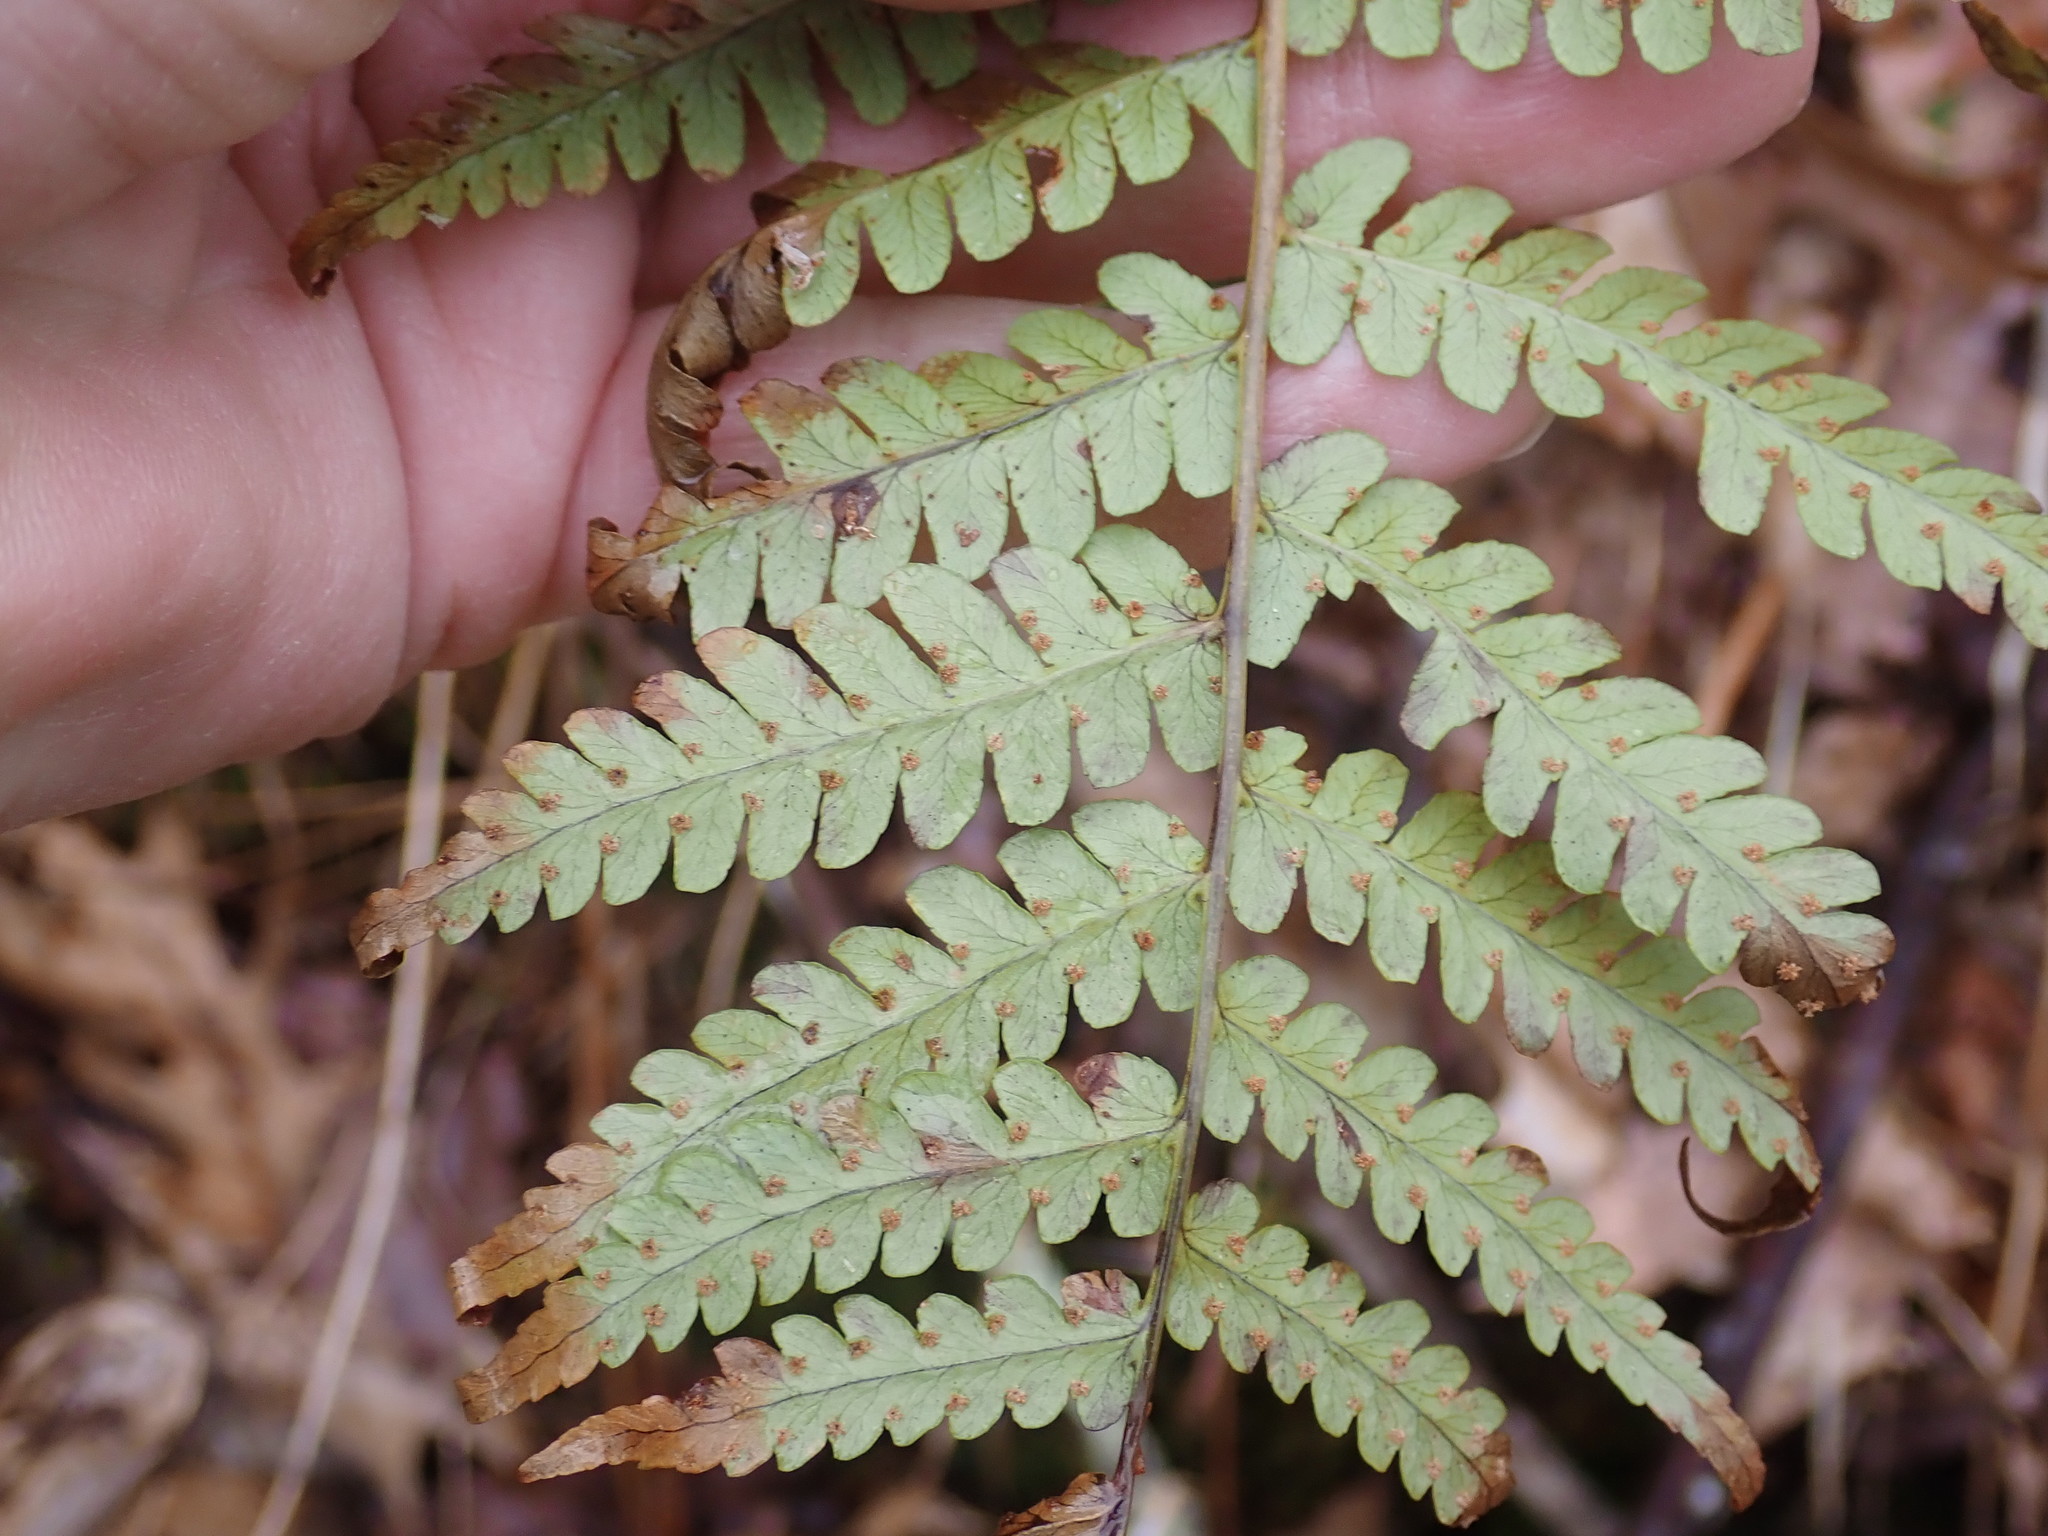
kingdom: Plantae
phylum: Tracheophyta
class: Polypodiopsida
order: Polypodiales
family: Dryopteridaceae
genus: Dryopteris
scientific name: Dryopteris marginalis
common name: Marginal wood fern
